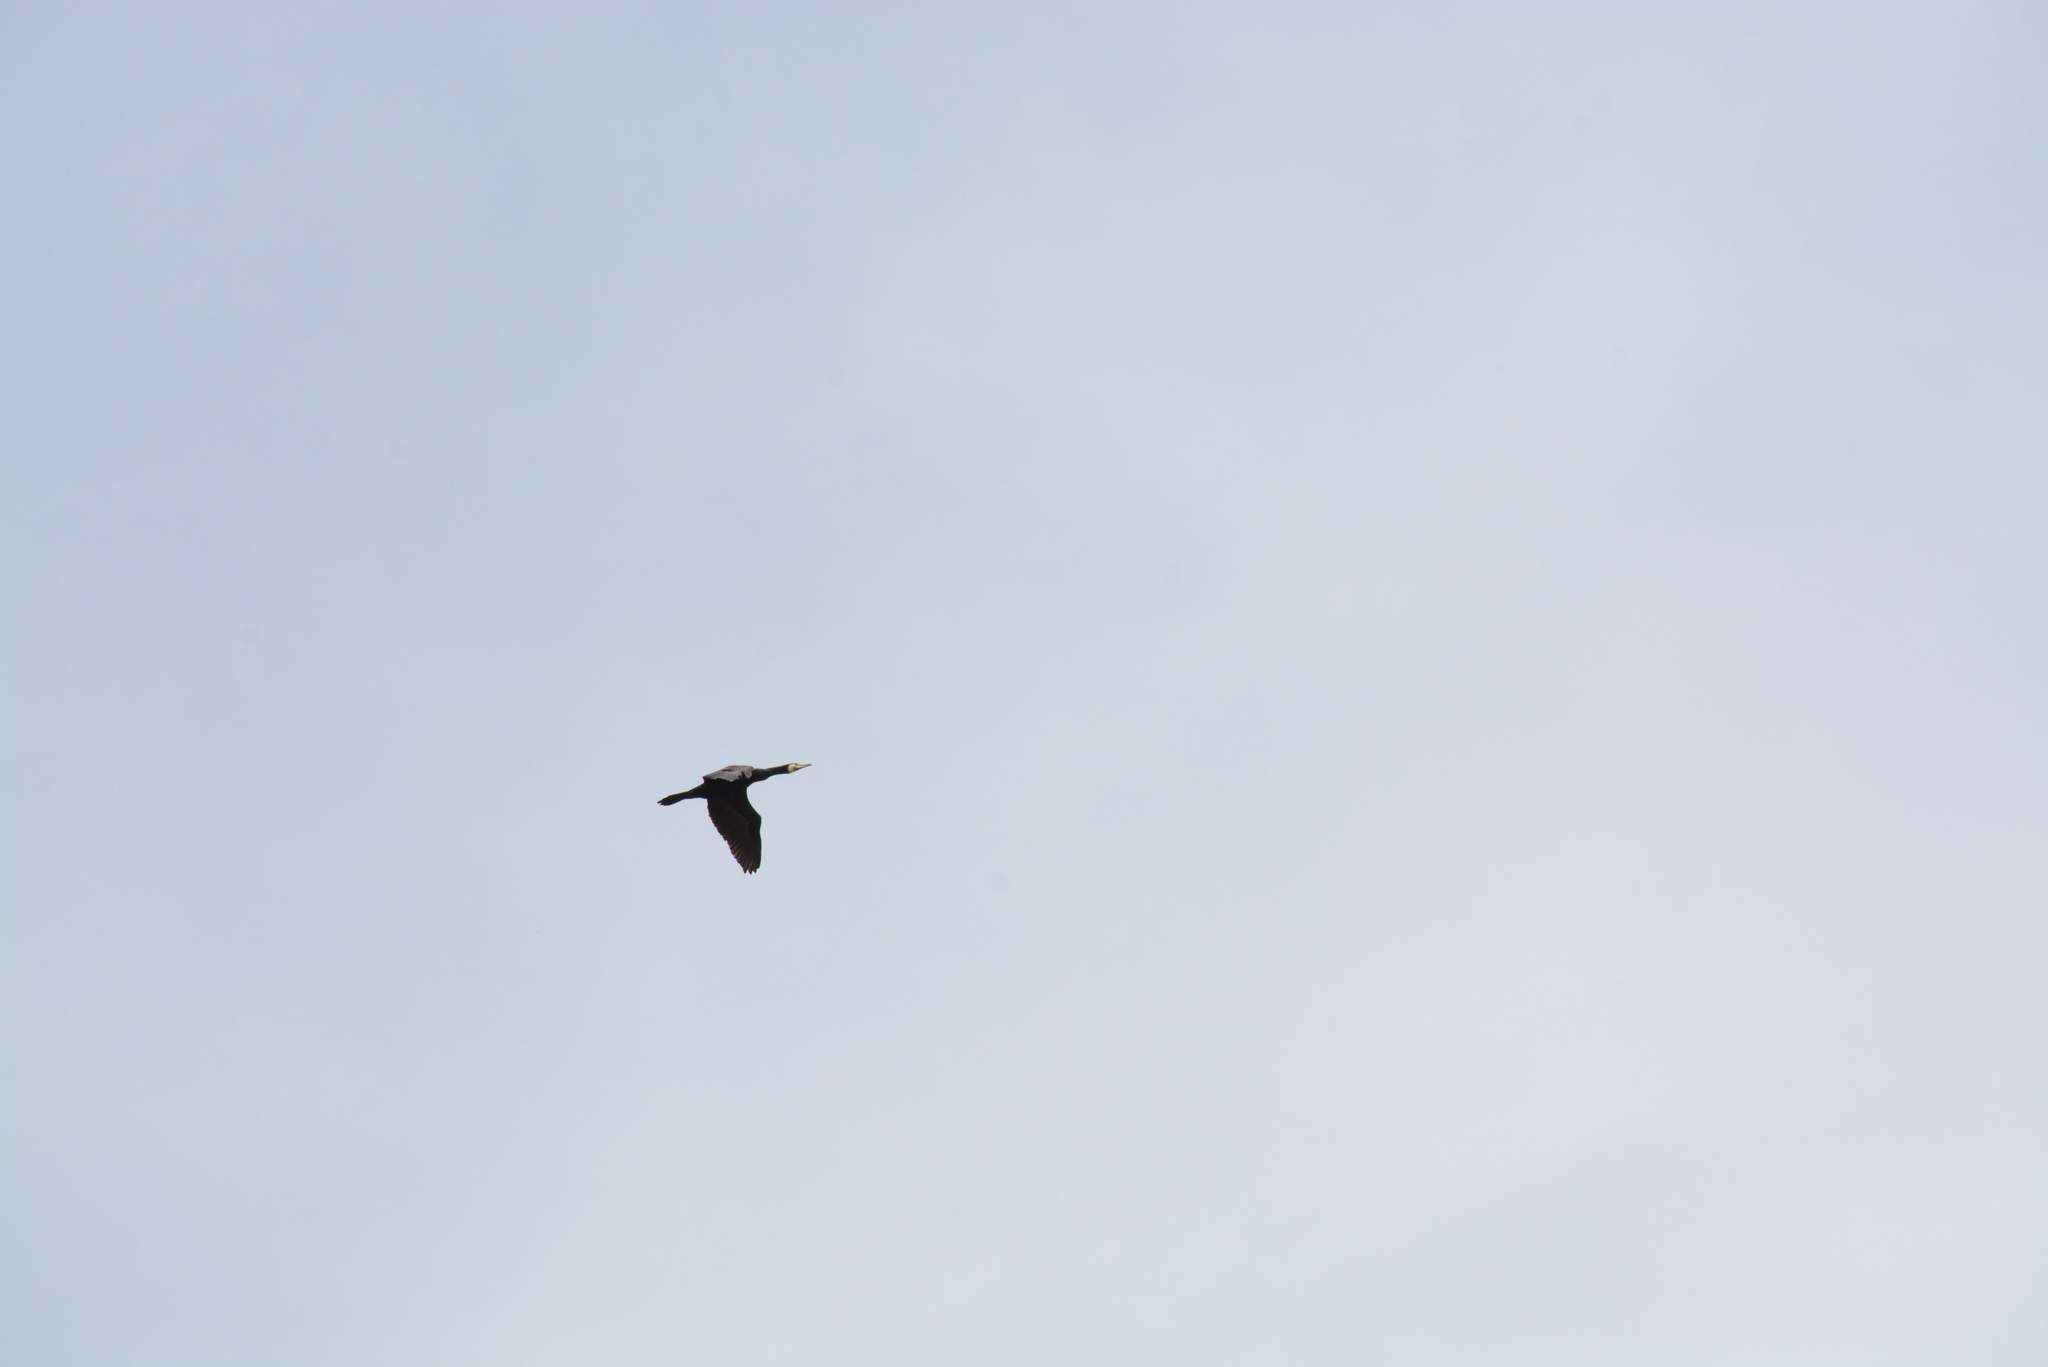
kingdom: Animalia
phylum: Chordata
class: Aves
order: Suliformes
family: Phalacrocoracidae
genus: Phalacrocorax
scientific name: Phalacrocorax carbo
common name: Great cormorant
